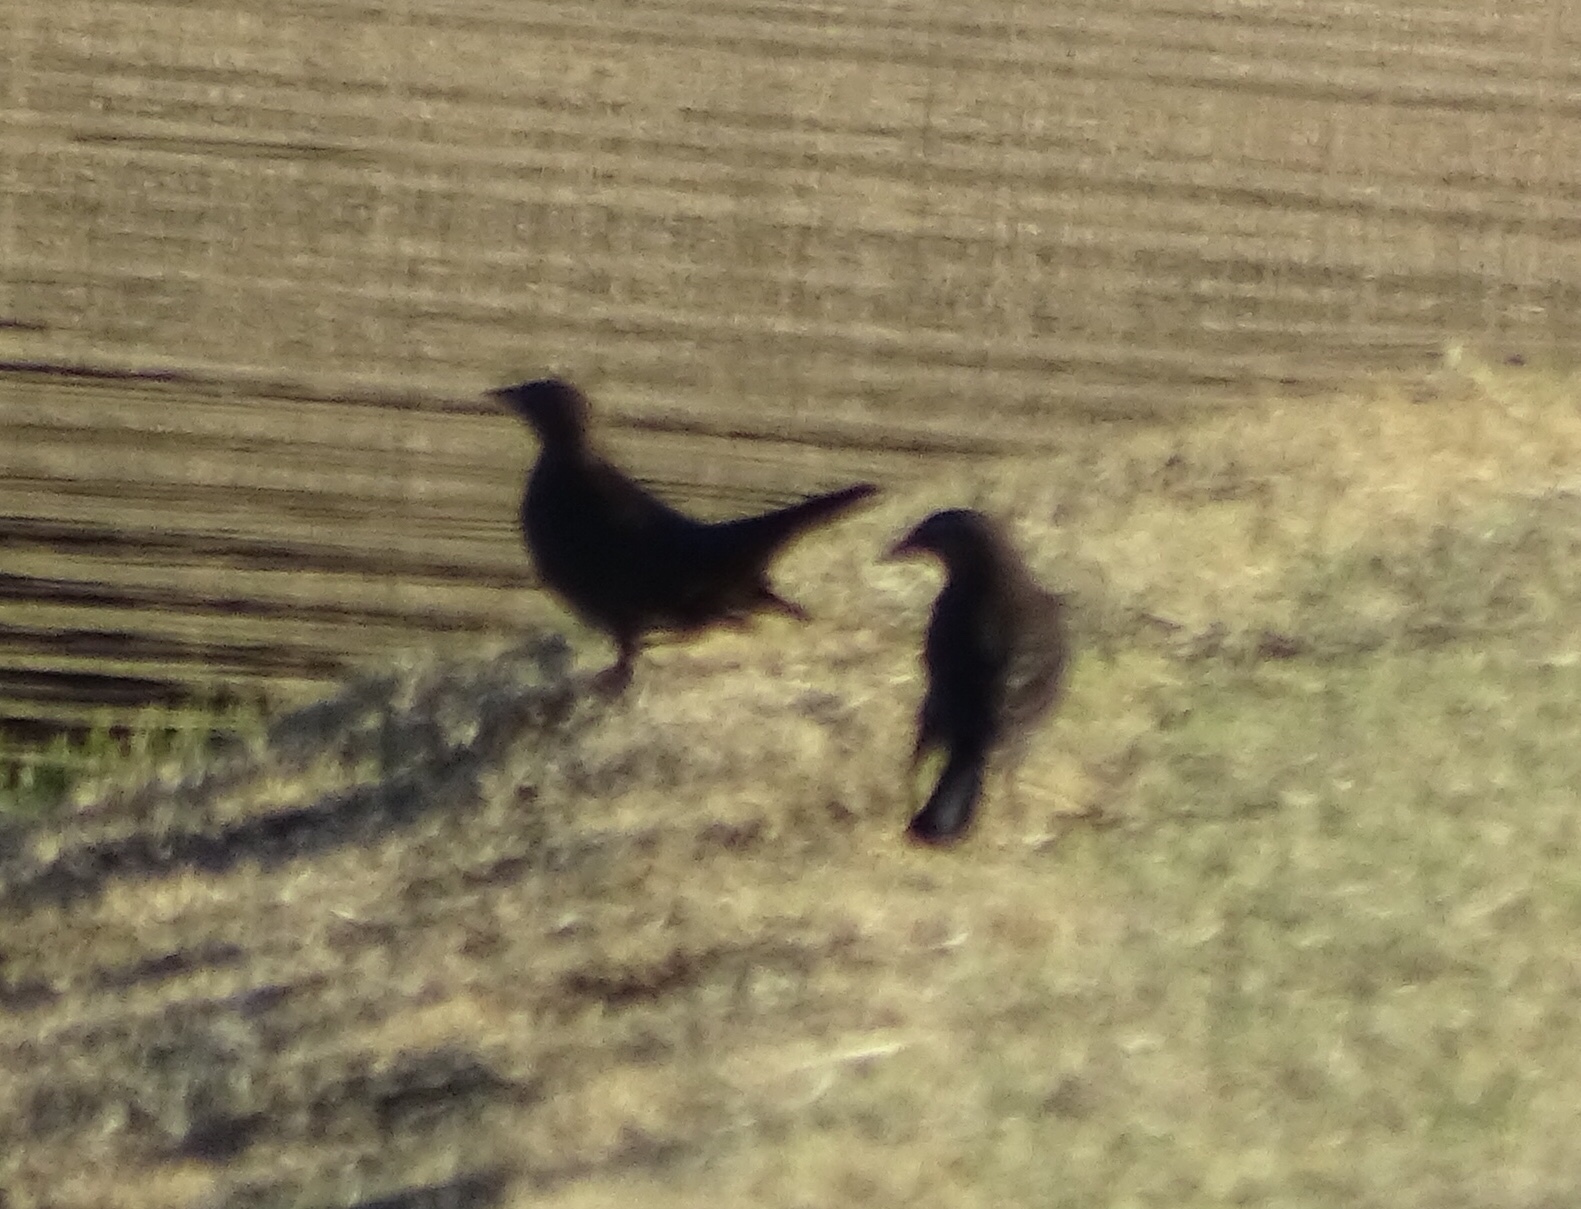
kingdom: Animalia
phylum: Chordata
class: Aves
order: Passeriformes
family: Icteridae
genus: Euphagus
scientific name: Euphagus cyanocephalus
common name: Brewer's blackbird
